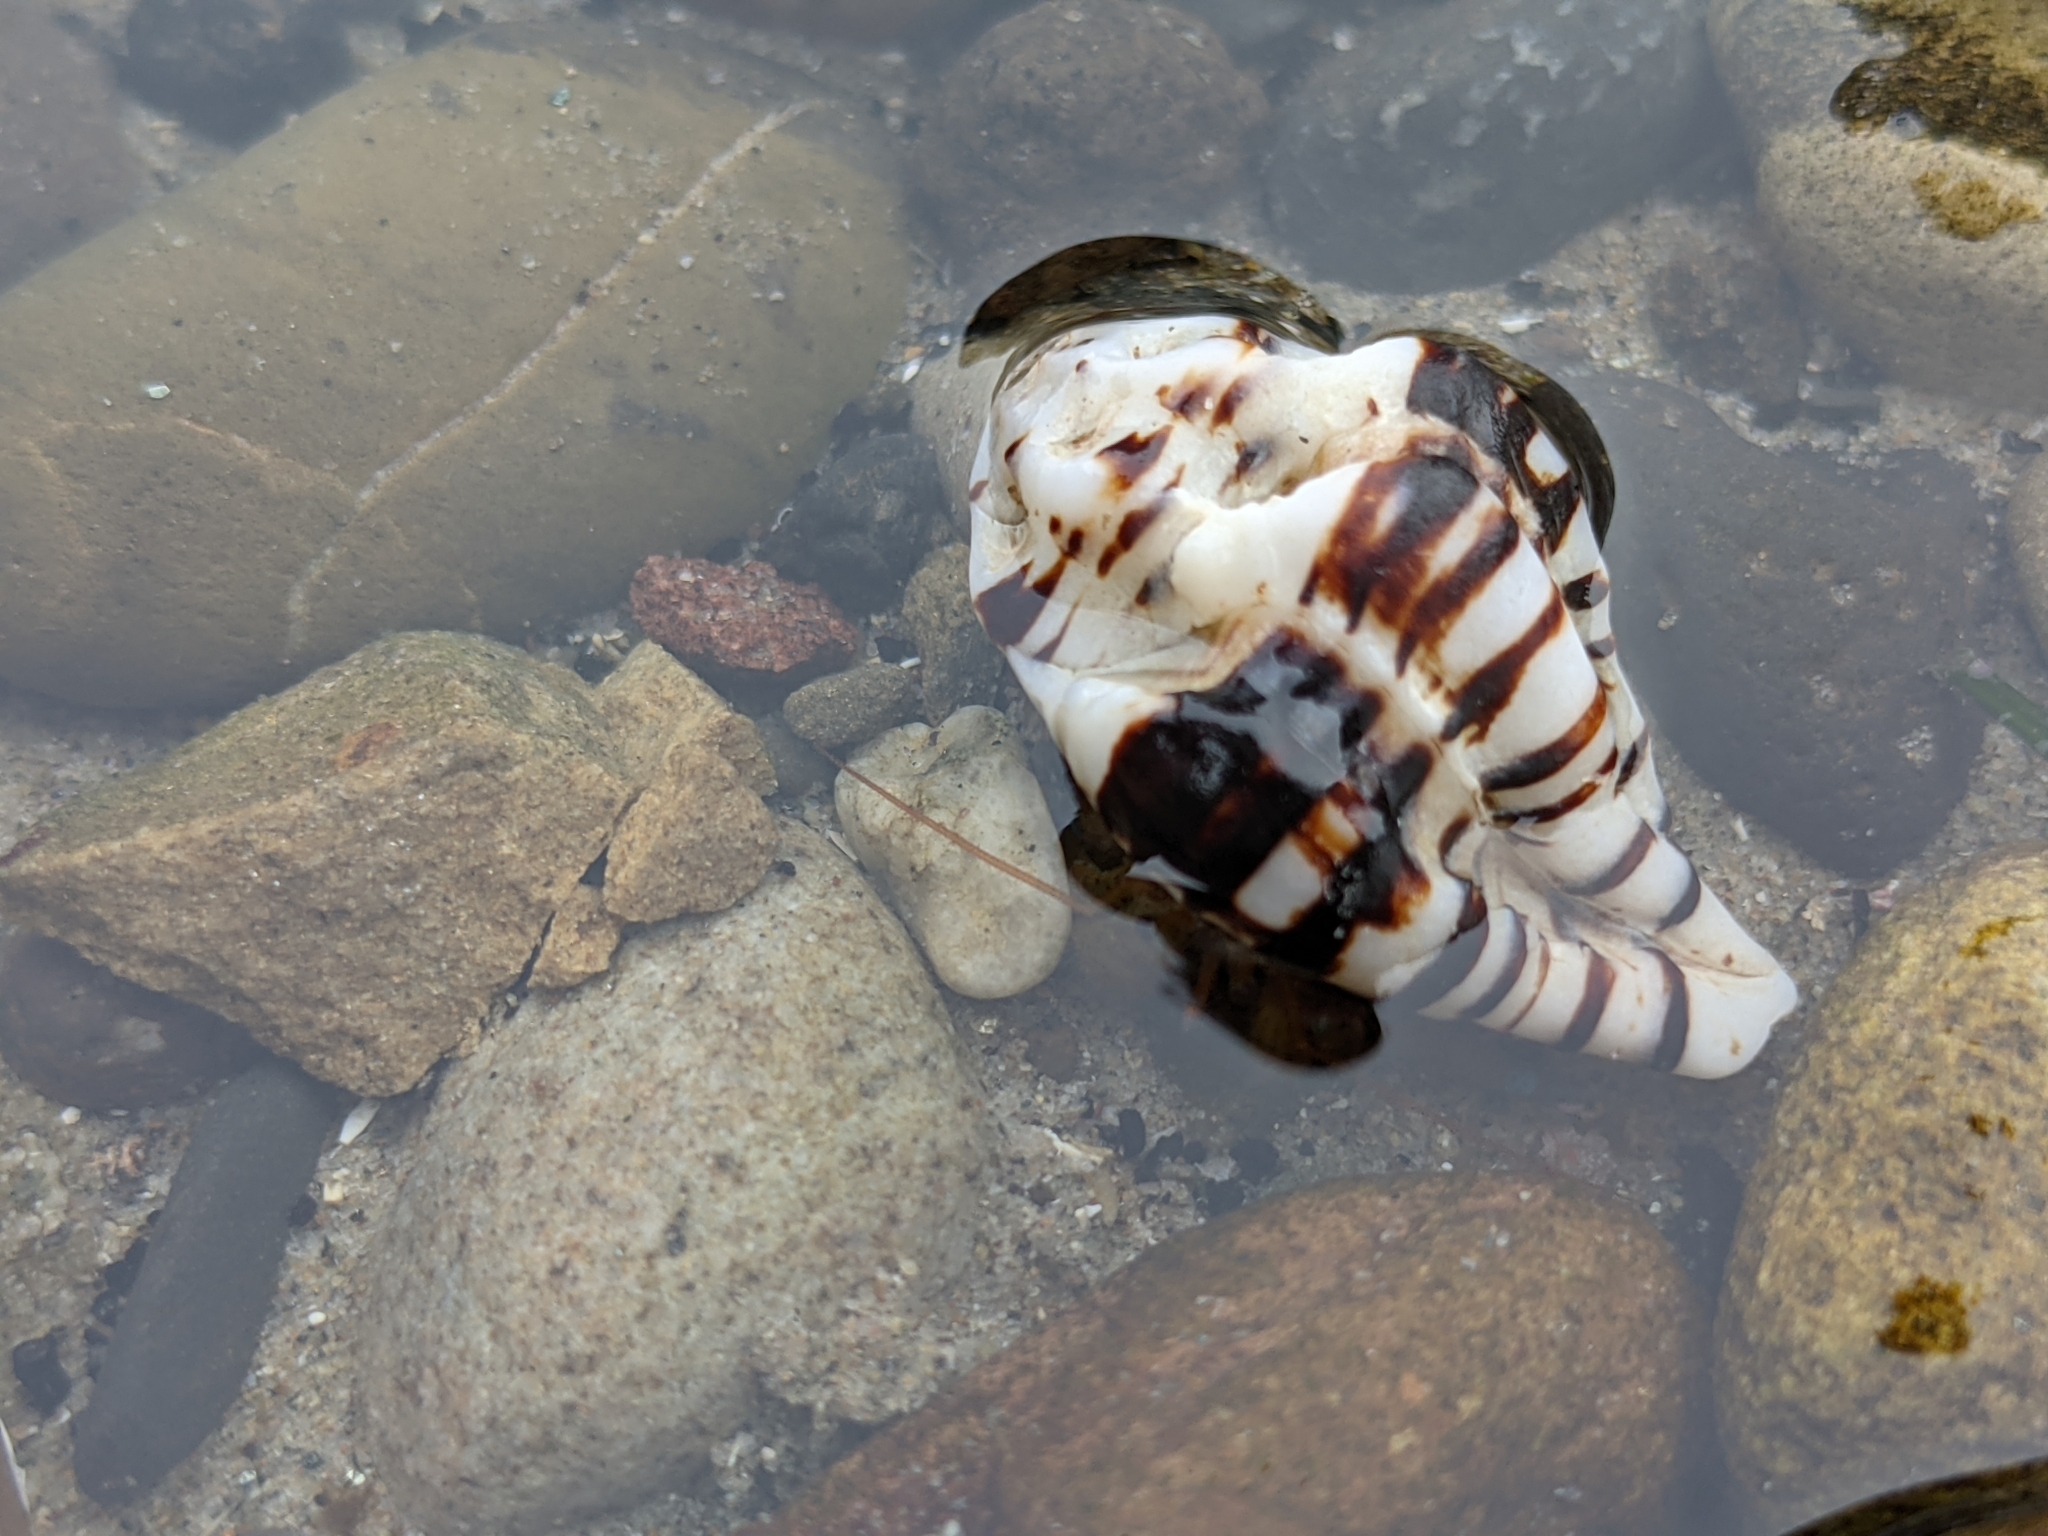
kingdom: Animalia
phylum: Mollusca
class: Gastropoda
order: Neogastropoda
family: Muricidae
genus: Maxwellia
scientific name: Maxwellia gemma
